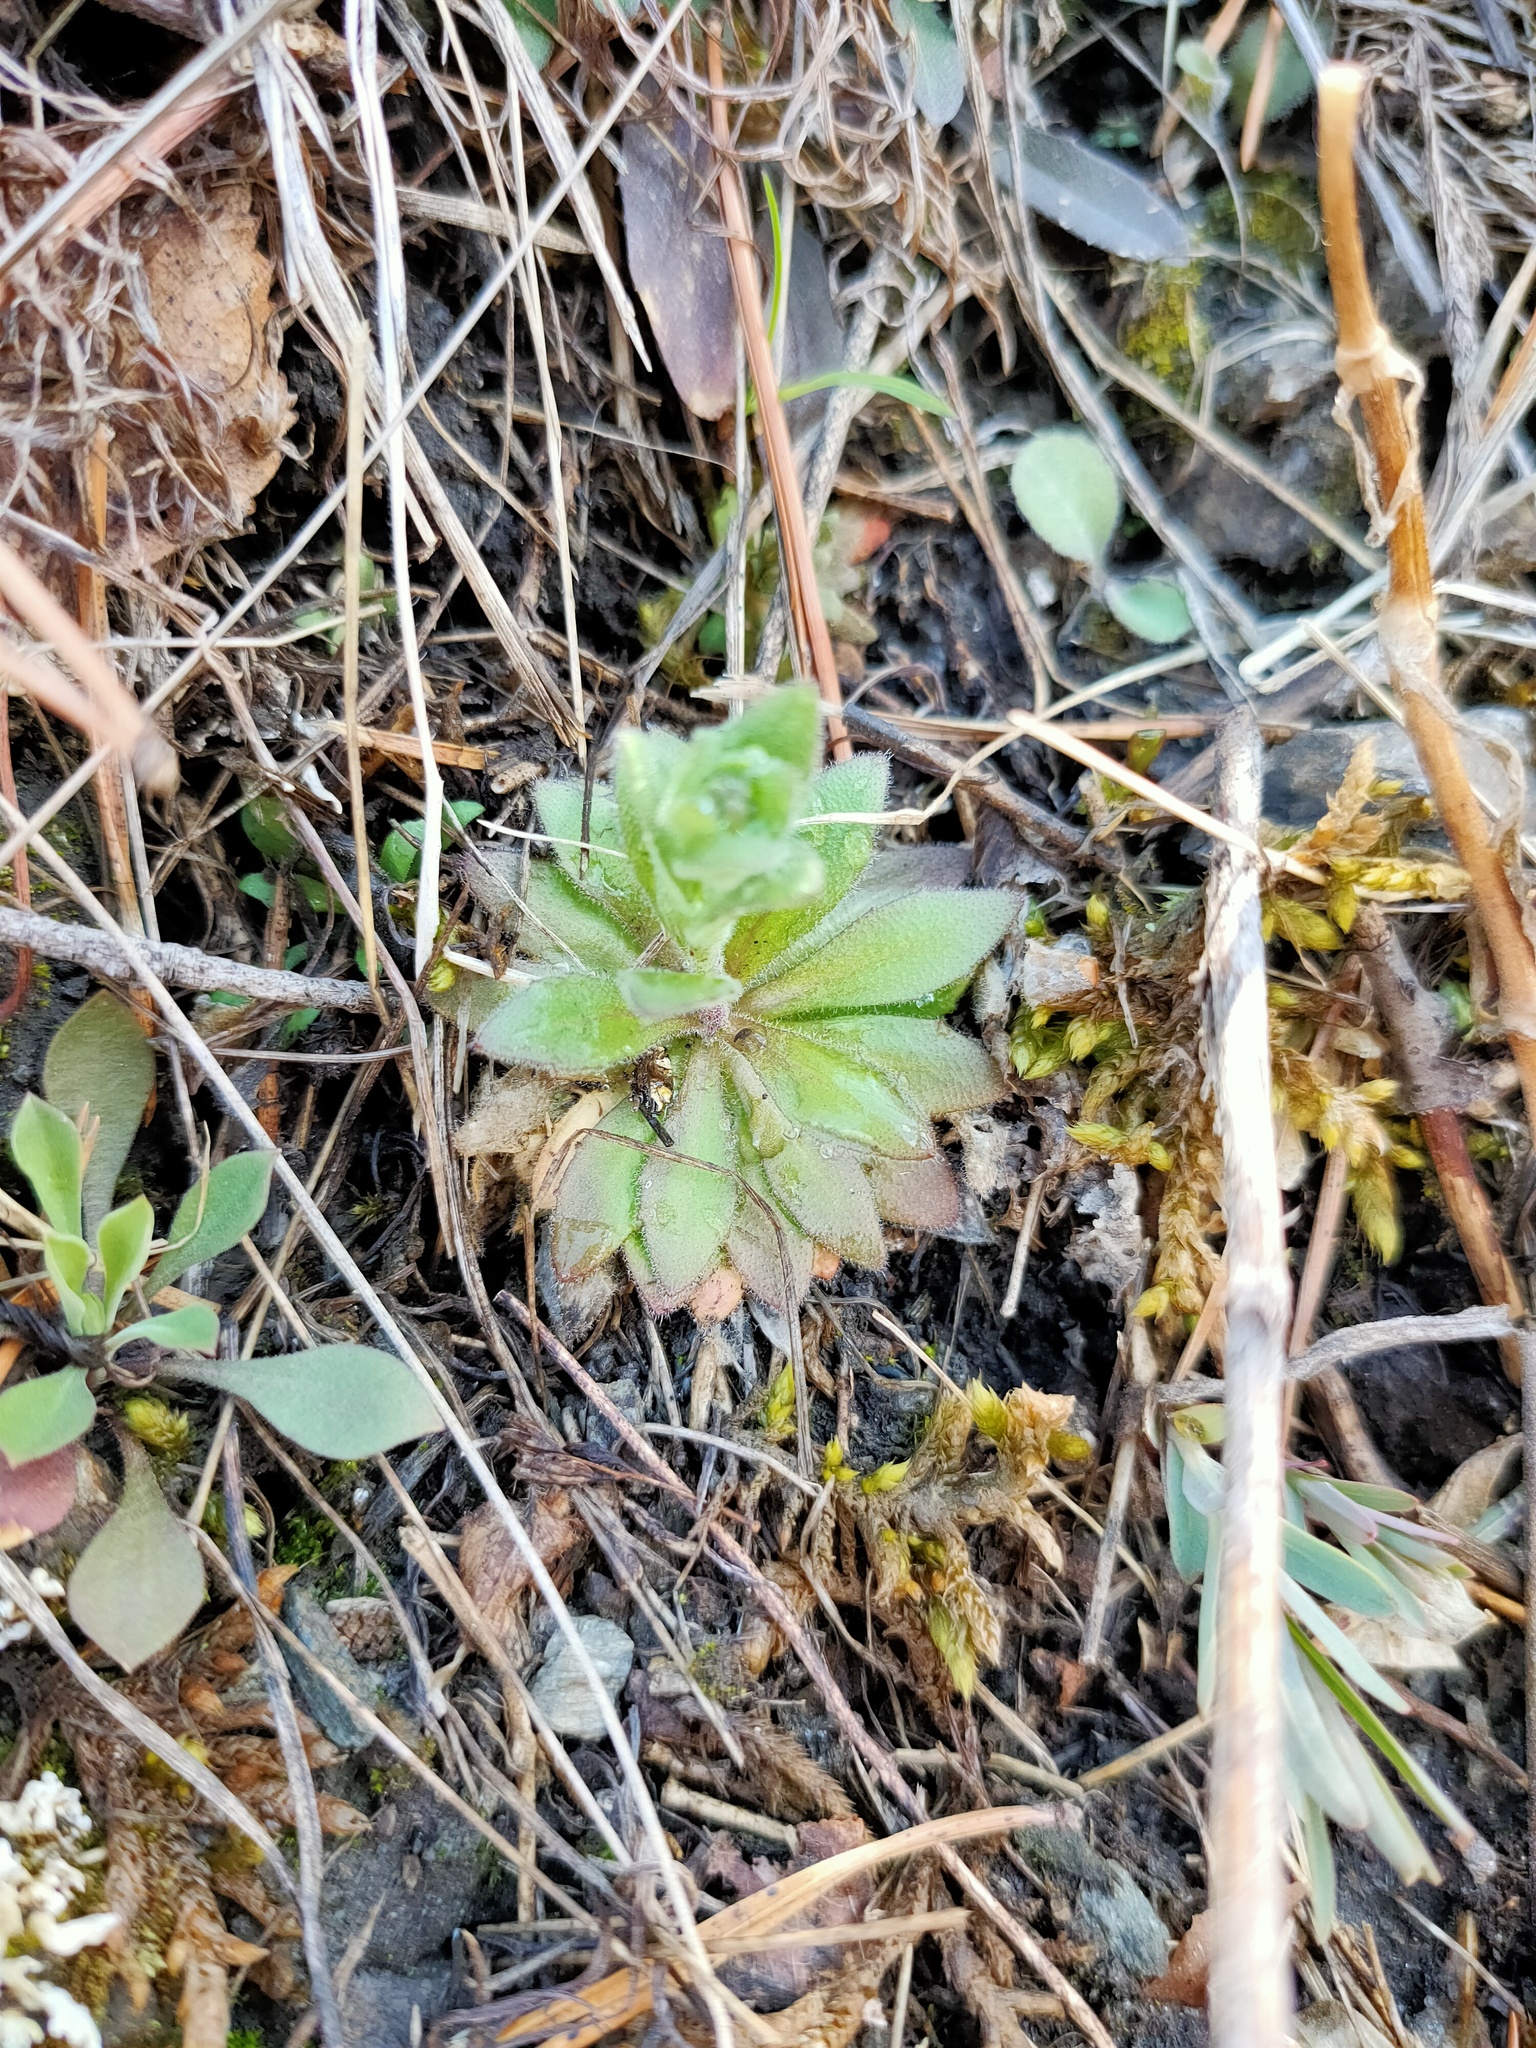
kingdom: Plantae
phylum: Tracheophyta
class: Magnoliopsida
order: Ericales
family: Primulaceae
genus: Androsace
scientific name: Androsace septentrionalis
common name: Hairy northern fairy-candelabra
